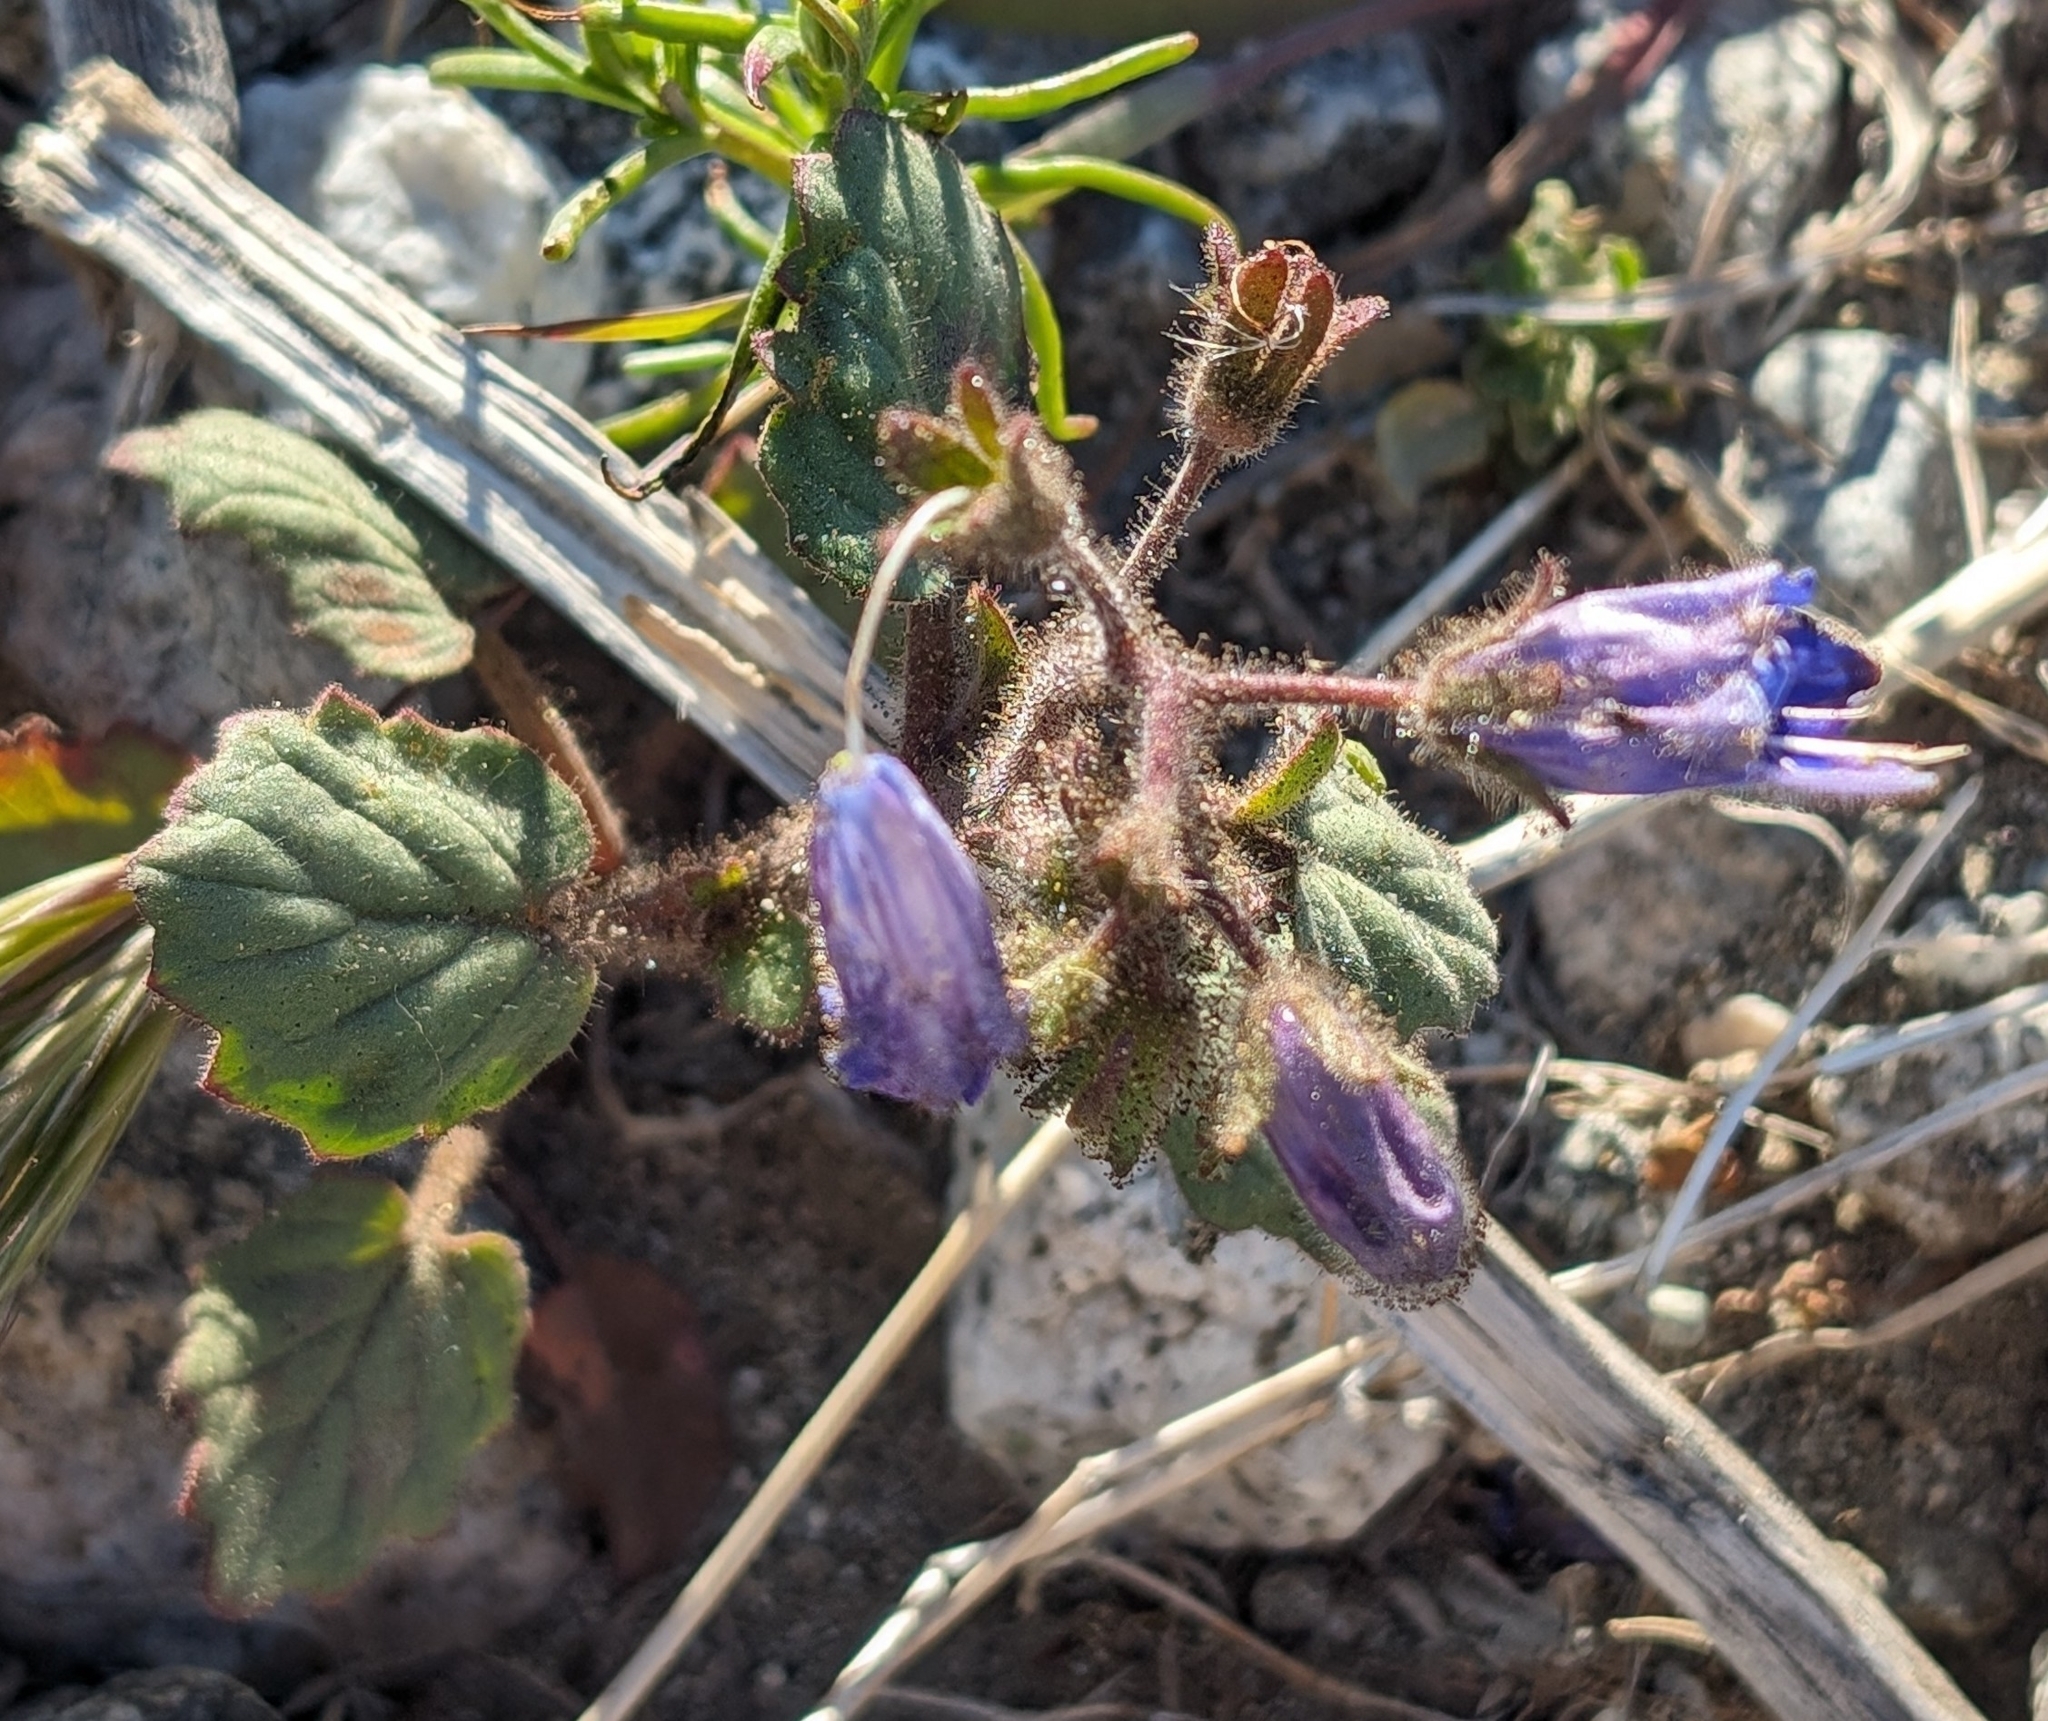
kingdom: Plantae
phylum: Tracheophyta
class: Magnoliopsida
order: Boraginales
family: Hydrophyllaceae
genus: Phacelia
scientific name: Phacelia campanularia
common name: California bluebell
